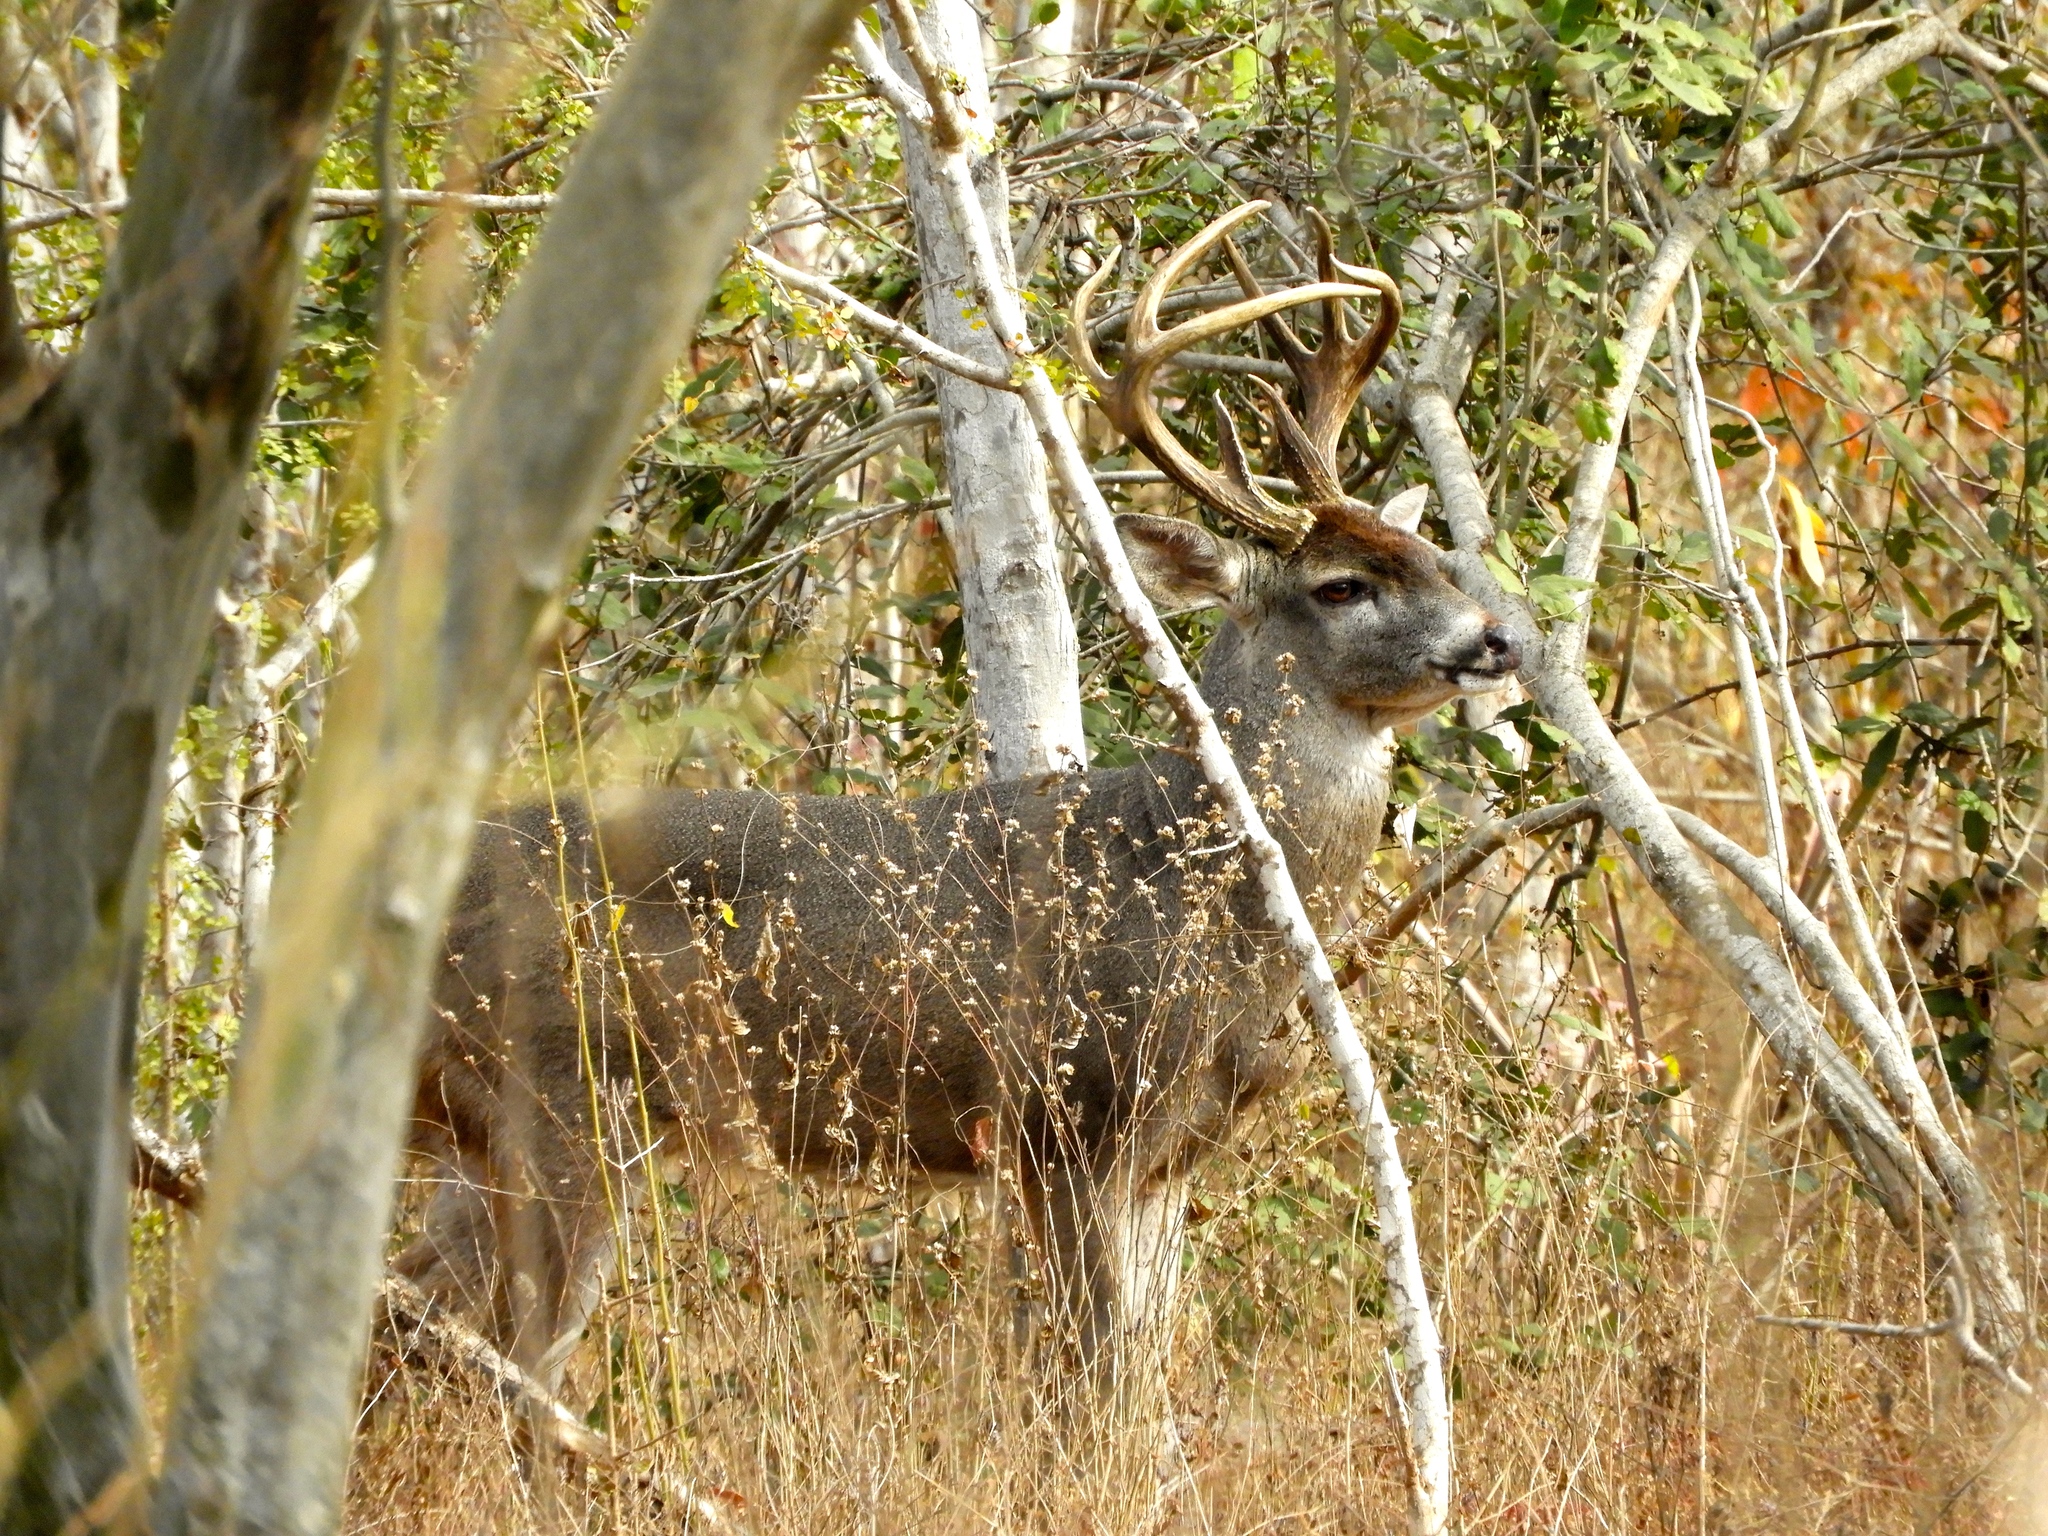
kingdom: Animalia
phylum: Chordata
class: Mammalia
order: Artiodactyla
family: Cervidae
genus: Odocoileus
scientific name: Odocoileus virginianus
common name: White-tailed deer
